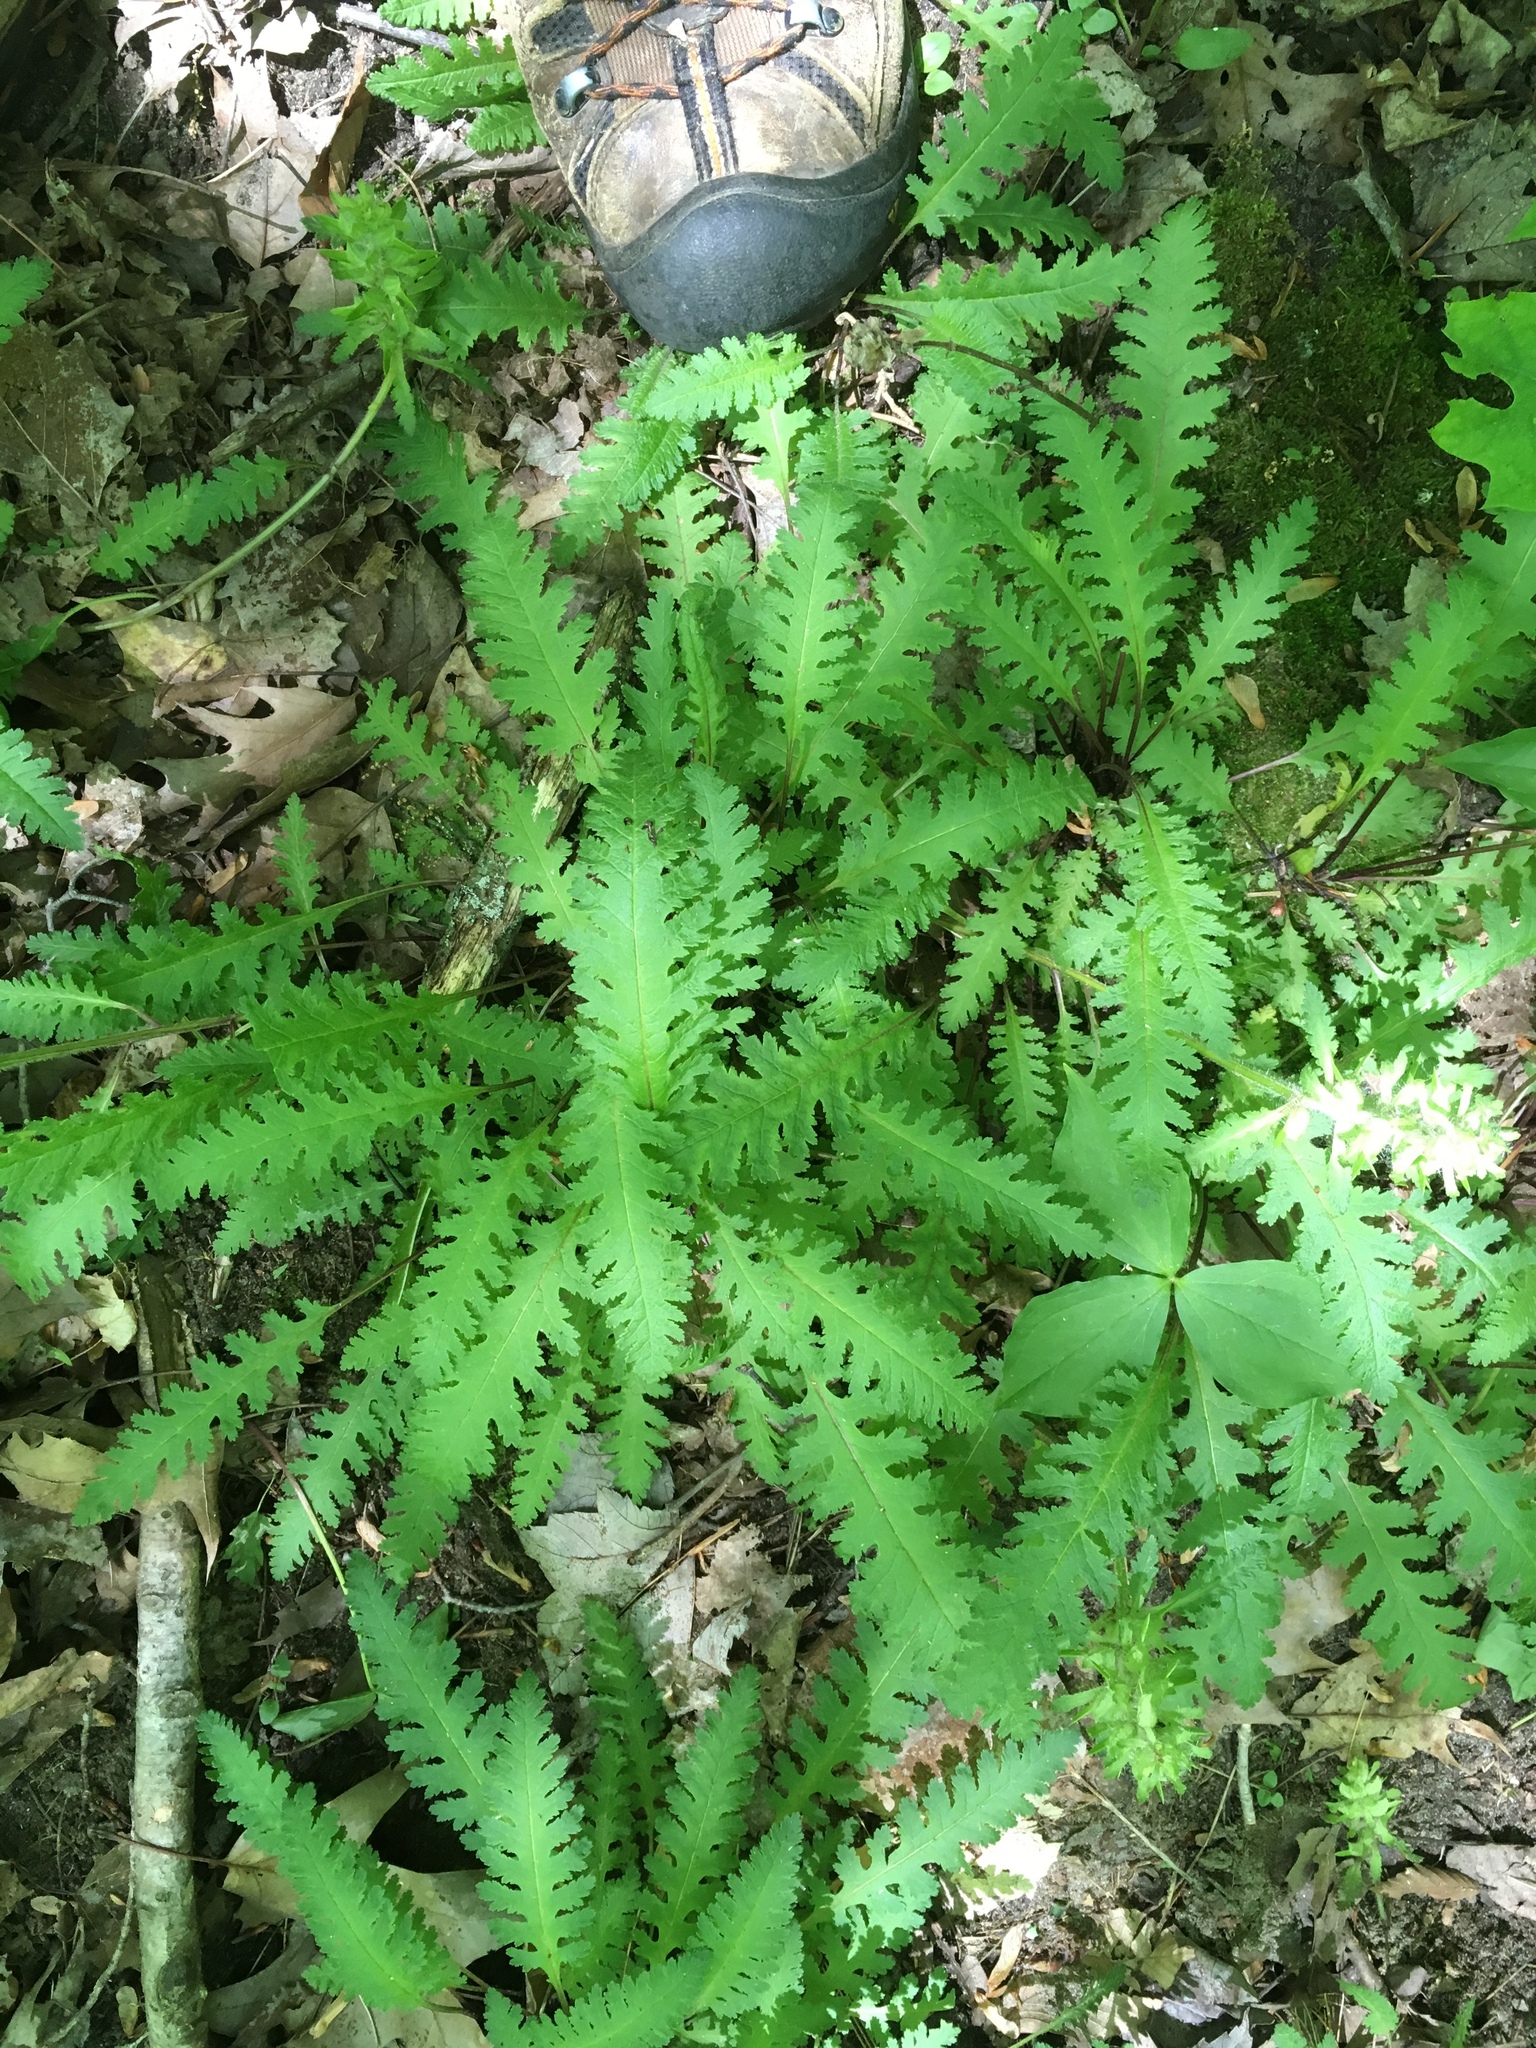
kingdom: Plantae
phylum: Tracheophyta
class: Magnoliopsida
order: Lamiales
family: Orobanchaceae
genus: Pedicularis
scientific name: Pedicularis canadensis
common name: Early lousewort
